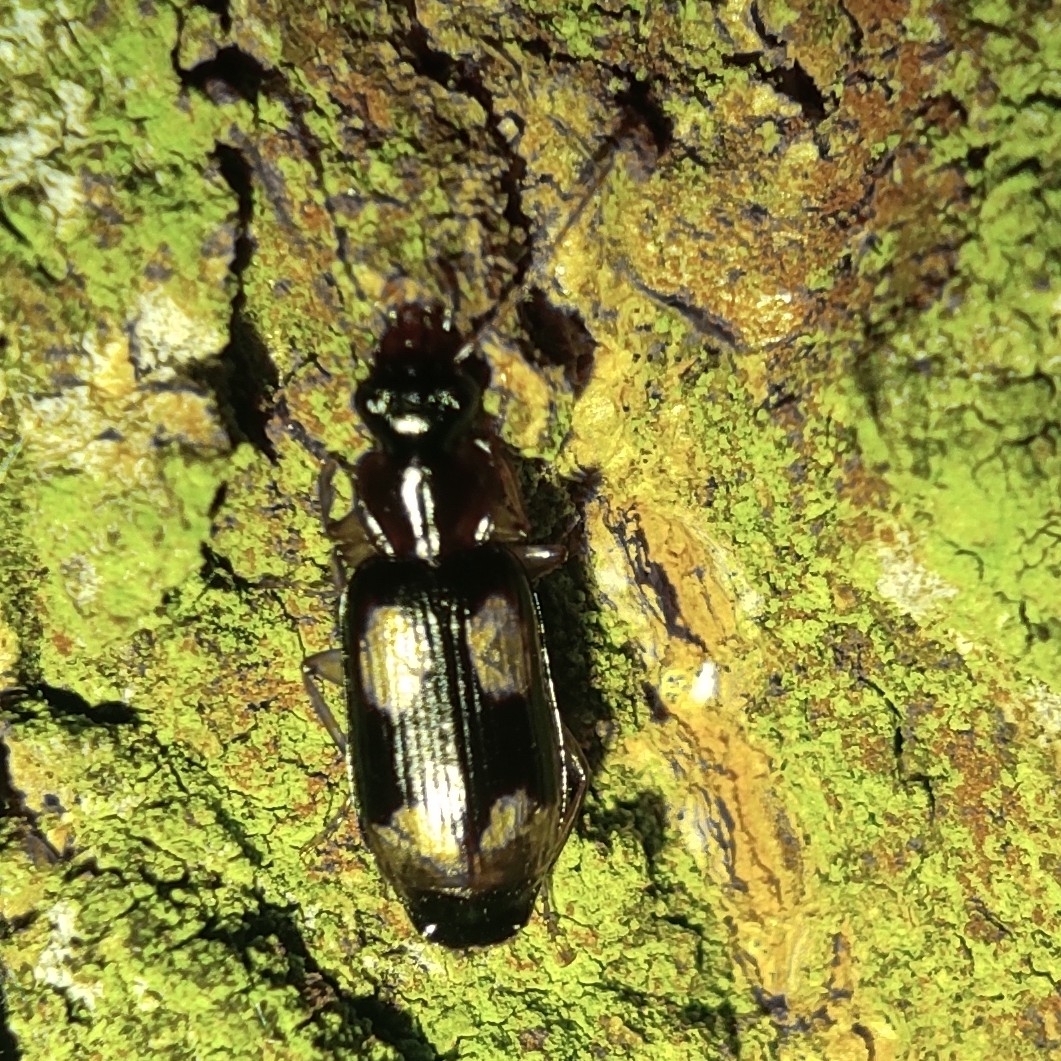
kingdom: Animalia
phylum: Arthropoda
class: Insecta
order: Coleoptera
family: Carabidae
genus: Dromius
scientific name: Dromius quadrimaculatus
